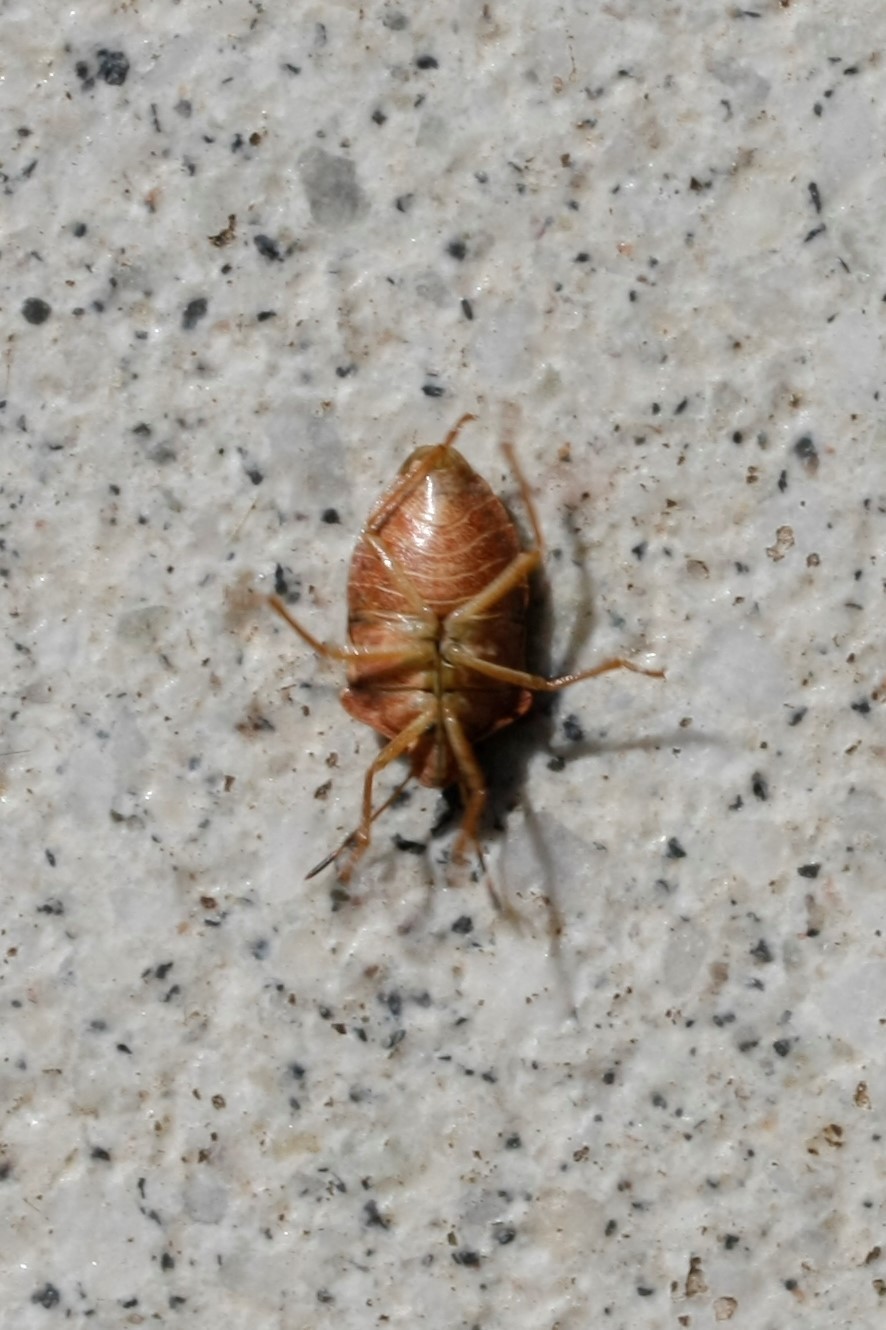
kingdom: Animalia
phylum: Arthropoda
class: Insecta
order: Hemiptera
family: Pentatomidae
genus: Palomena
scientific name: Palomena prasina
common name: Green shieldbug
